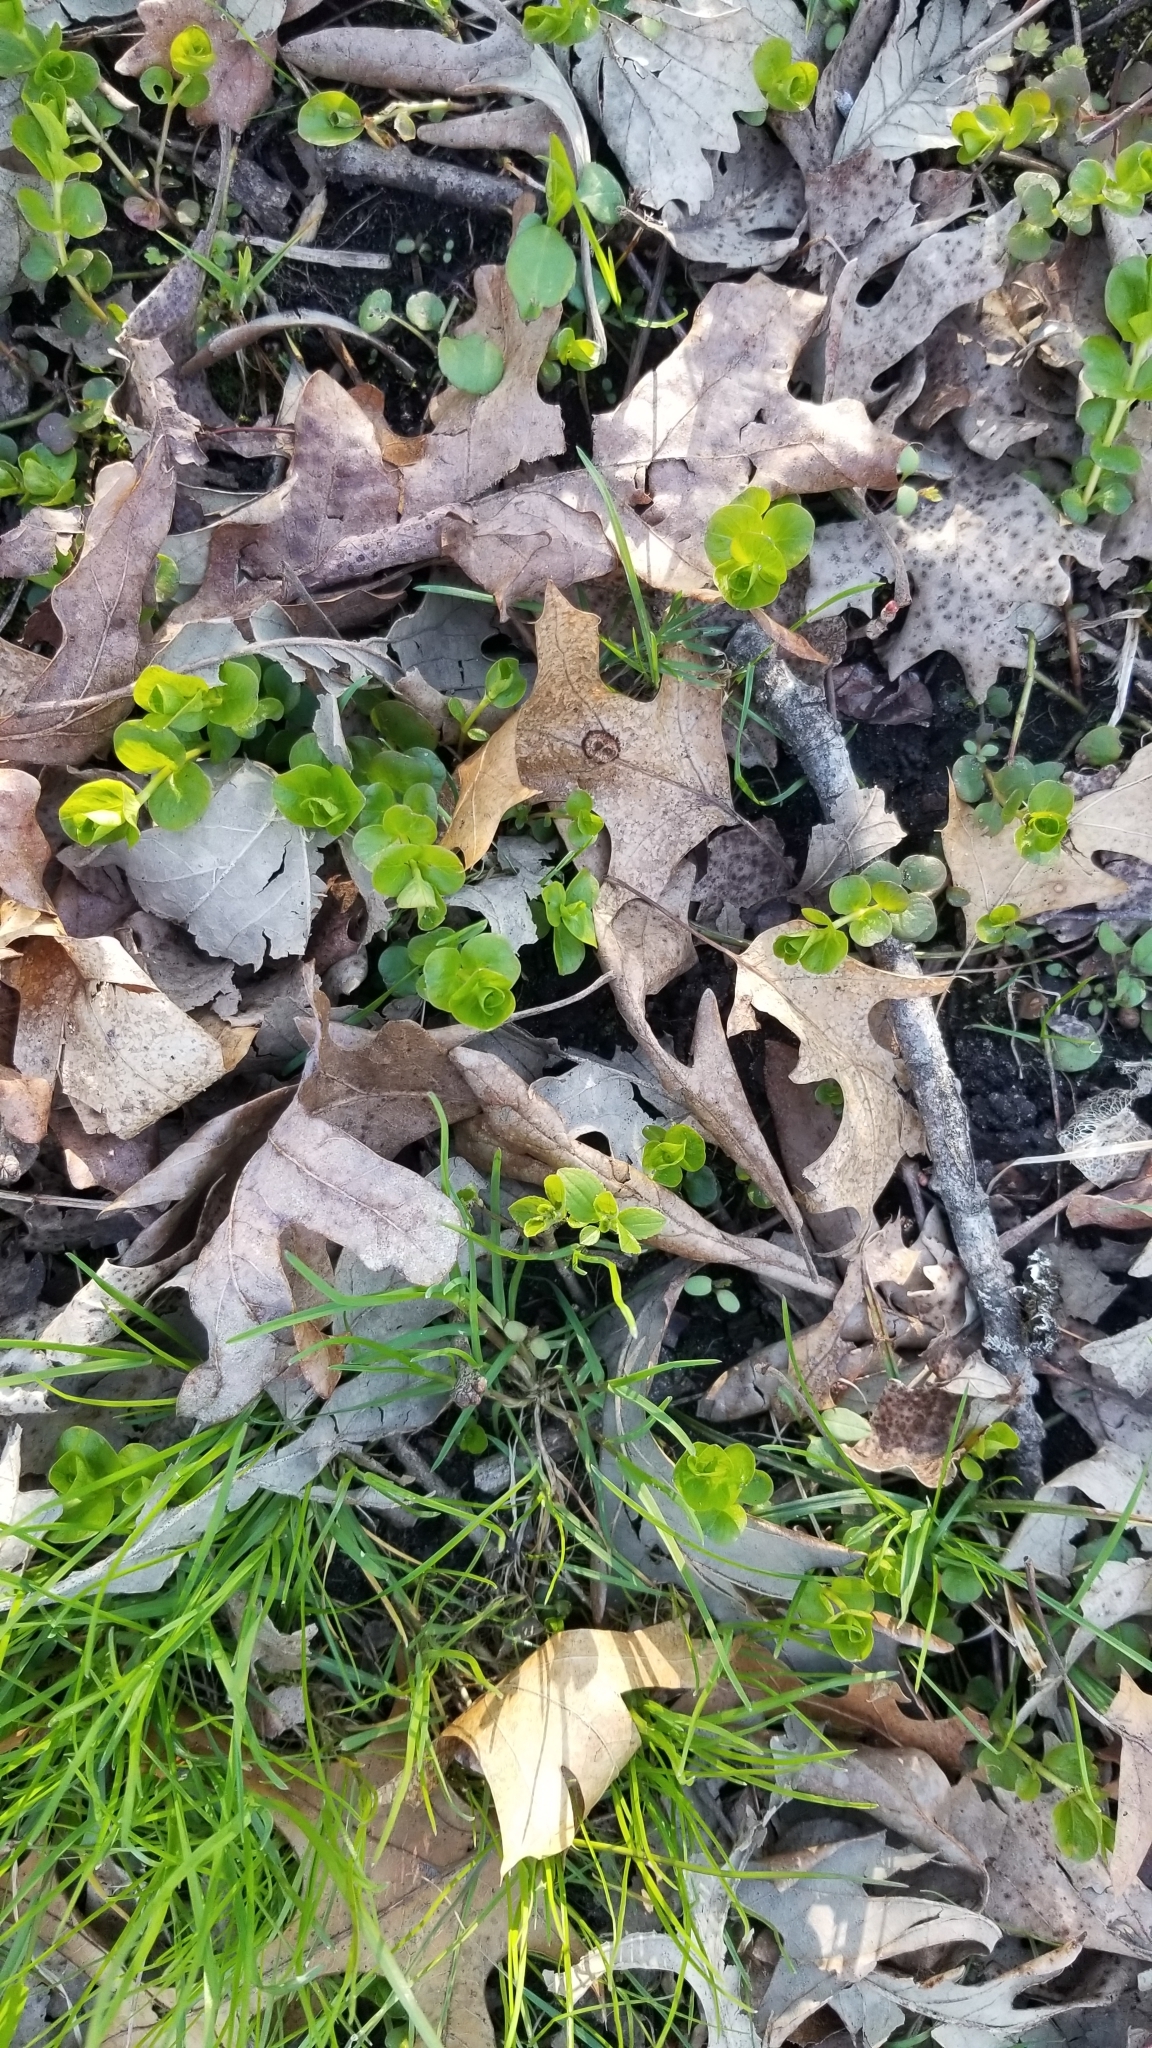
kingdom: Plantae
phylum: Tracheophyta
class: Magnoliopsida
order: Ericales
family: Primulaceae
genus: Lysimachia
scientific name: Lysimachia nummularia
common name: Moneywort
